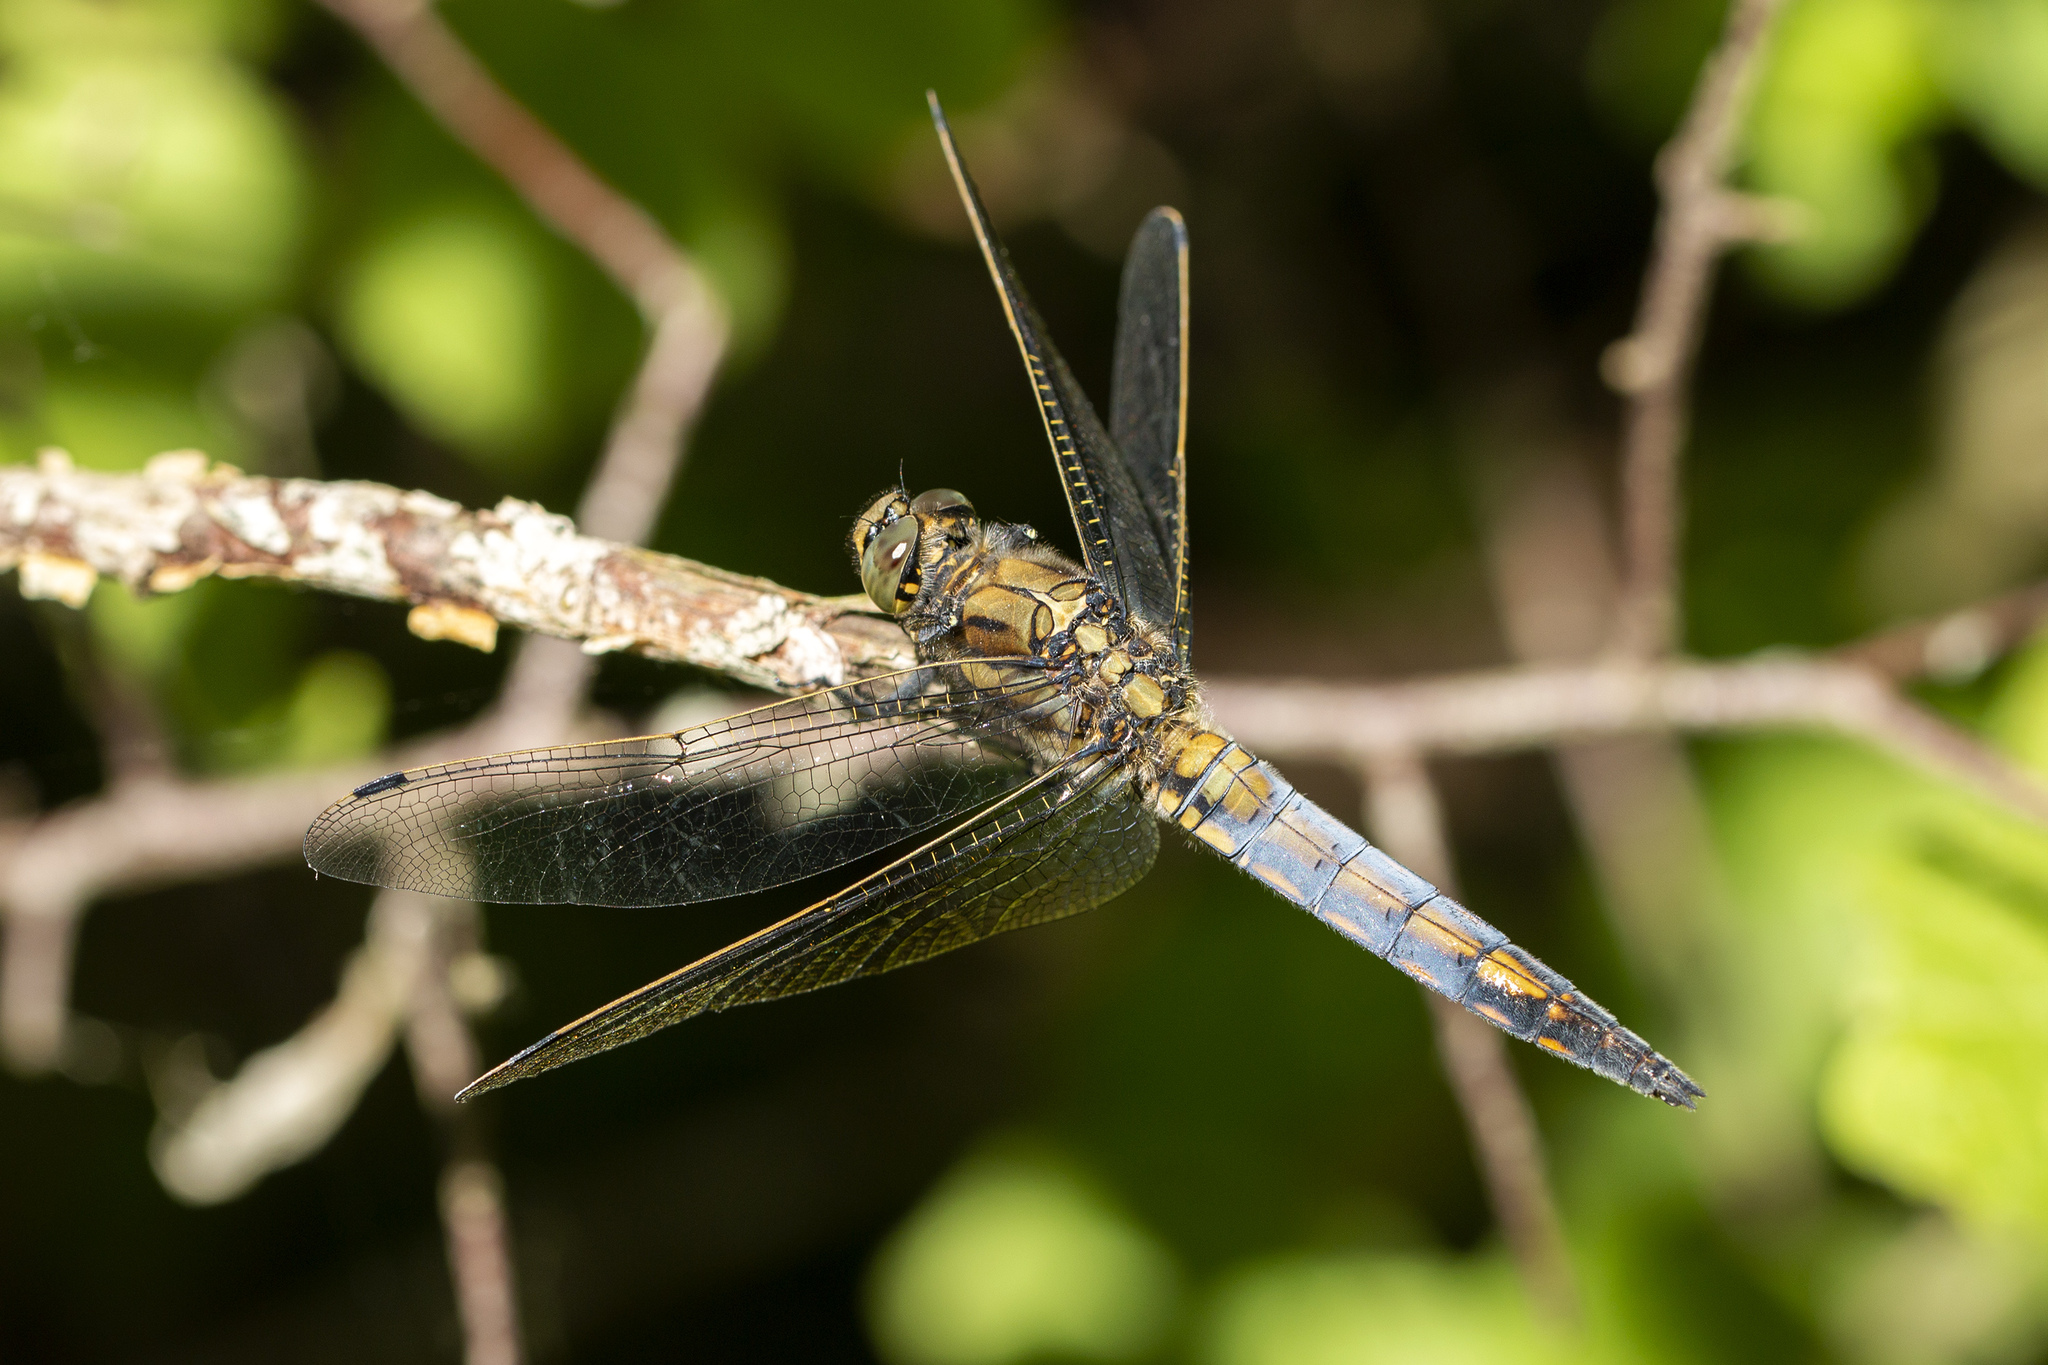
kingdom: Animalia
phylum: Arthropoda
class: Insecta
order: Odonata
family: Libellulidae
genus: Orthetrum
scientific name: Orthetrum cancellatum
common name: Black-tailed skimmer
